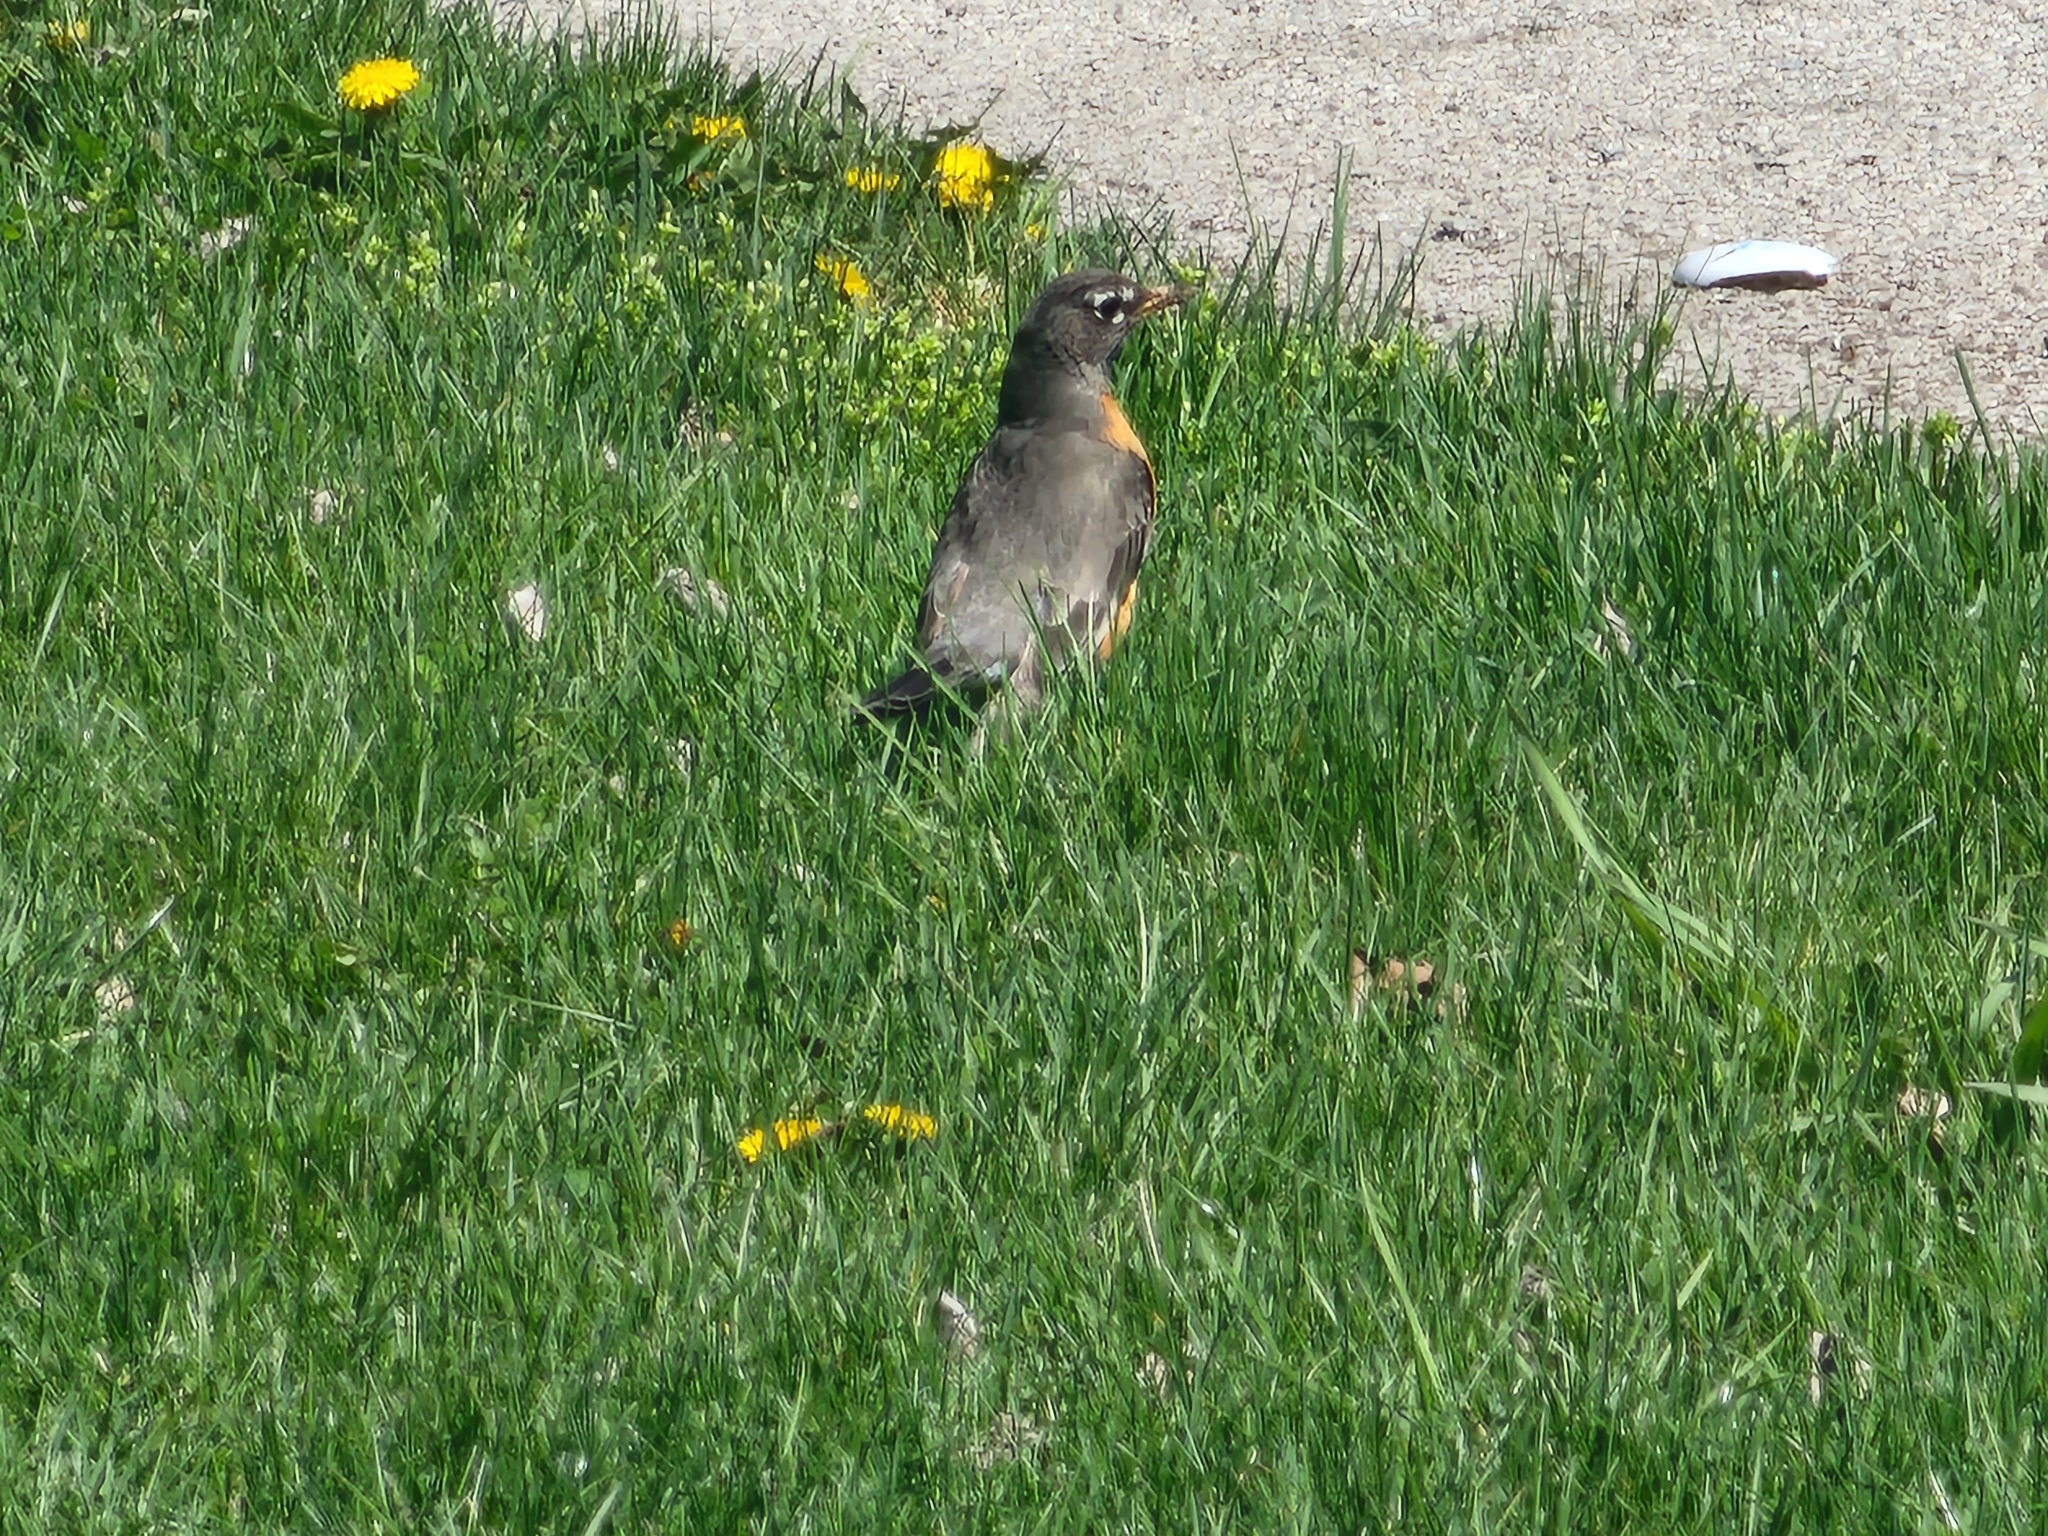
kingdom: Animalia
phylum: Chordata
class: Aves
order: Passeriformes
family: Turdidae
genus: Turdus
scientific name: Turdus migratorius
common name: American robin
